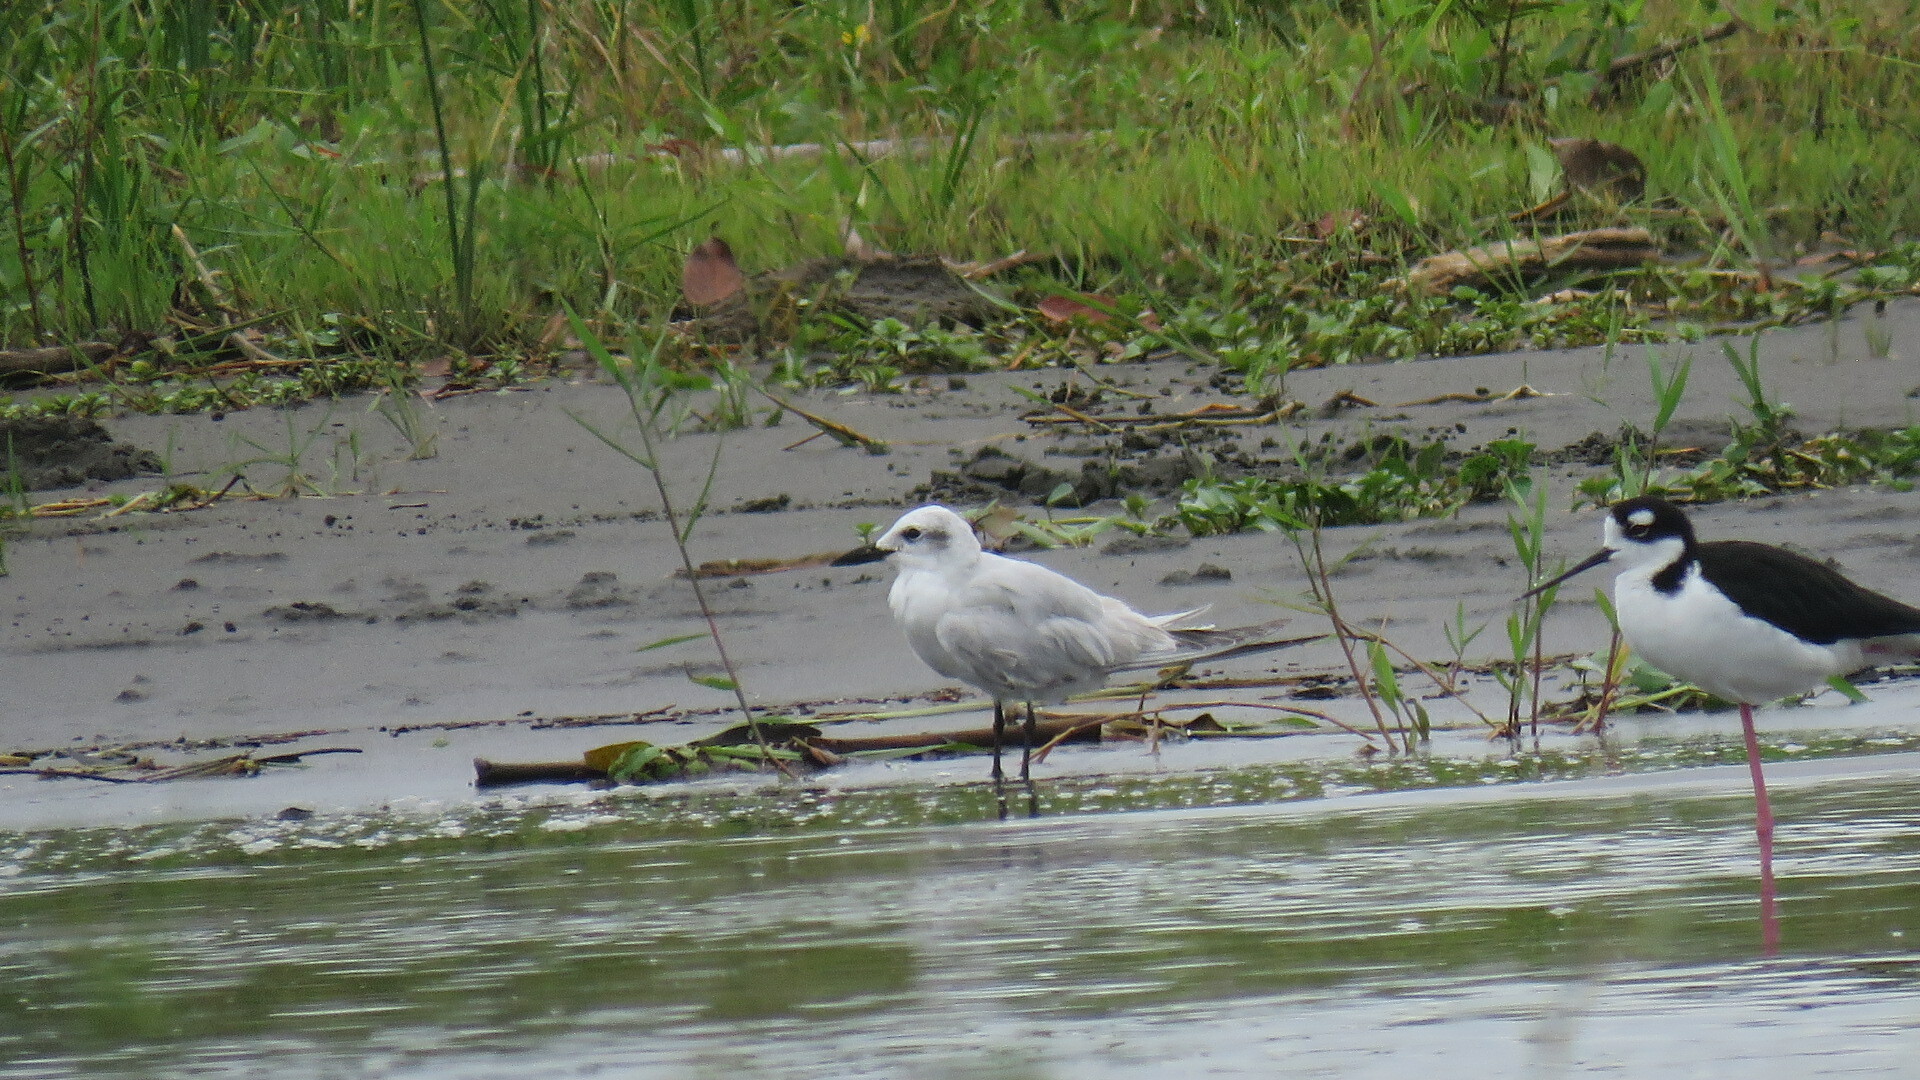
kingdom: Animalia
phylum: Chordata
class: Aves
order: Charadriiformes
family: Laridae
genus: Gelochelidon
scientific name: Gelochelidon nilotica
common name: Gull-billed tern
